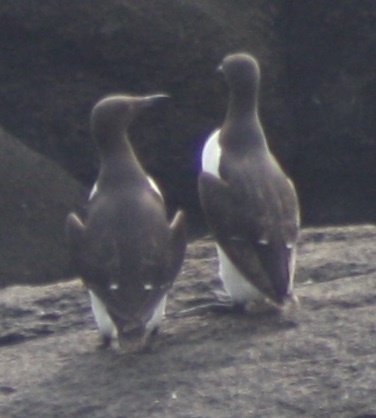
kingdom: Animalia
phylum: Chordata
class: Aves
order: Charadriiformes
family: Alcidae
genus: Uria
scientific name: Uria aalge
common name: Common murre
